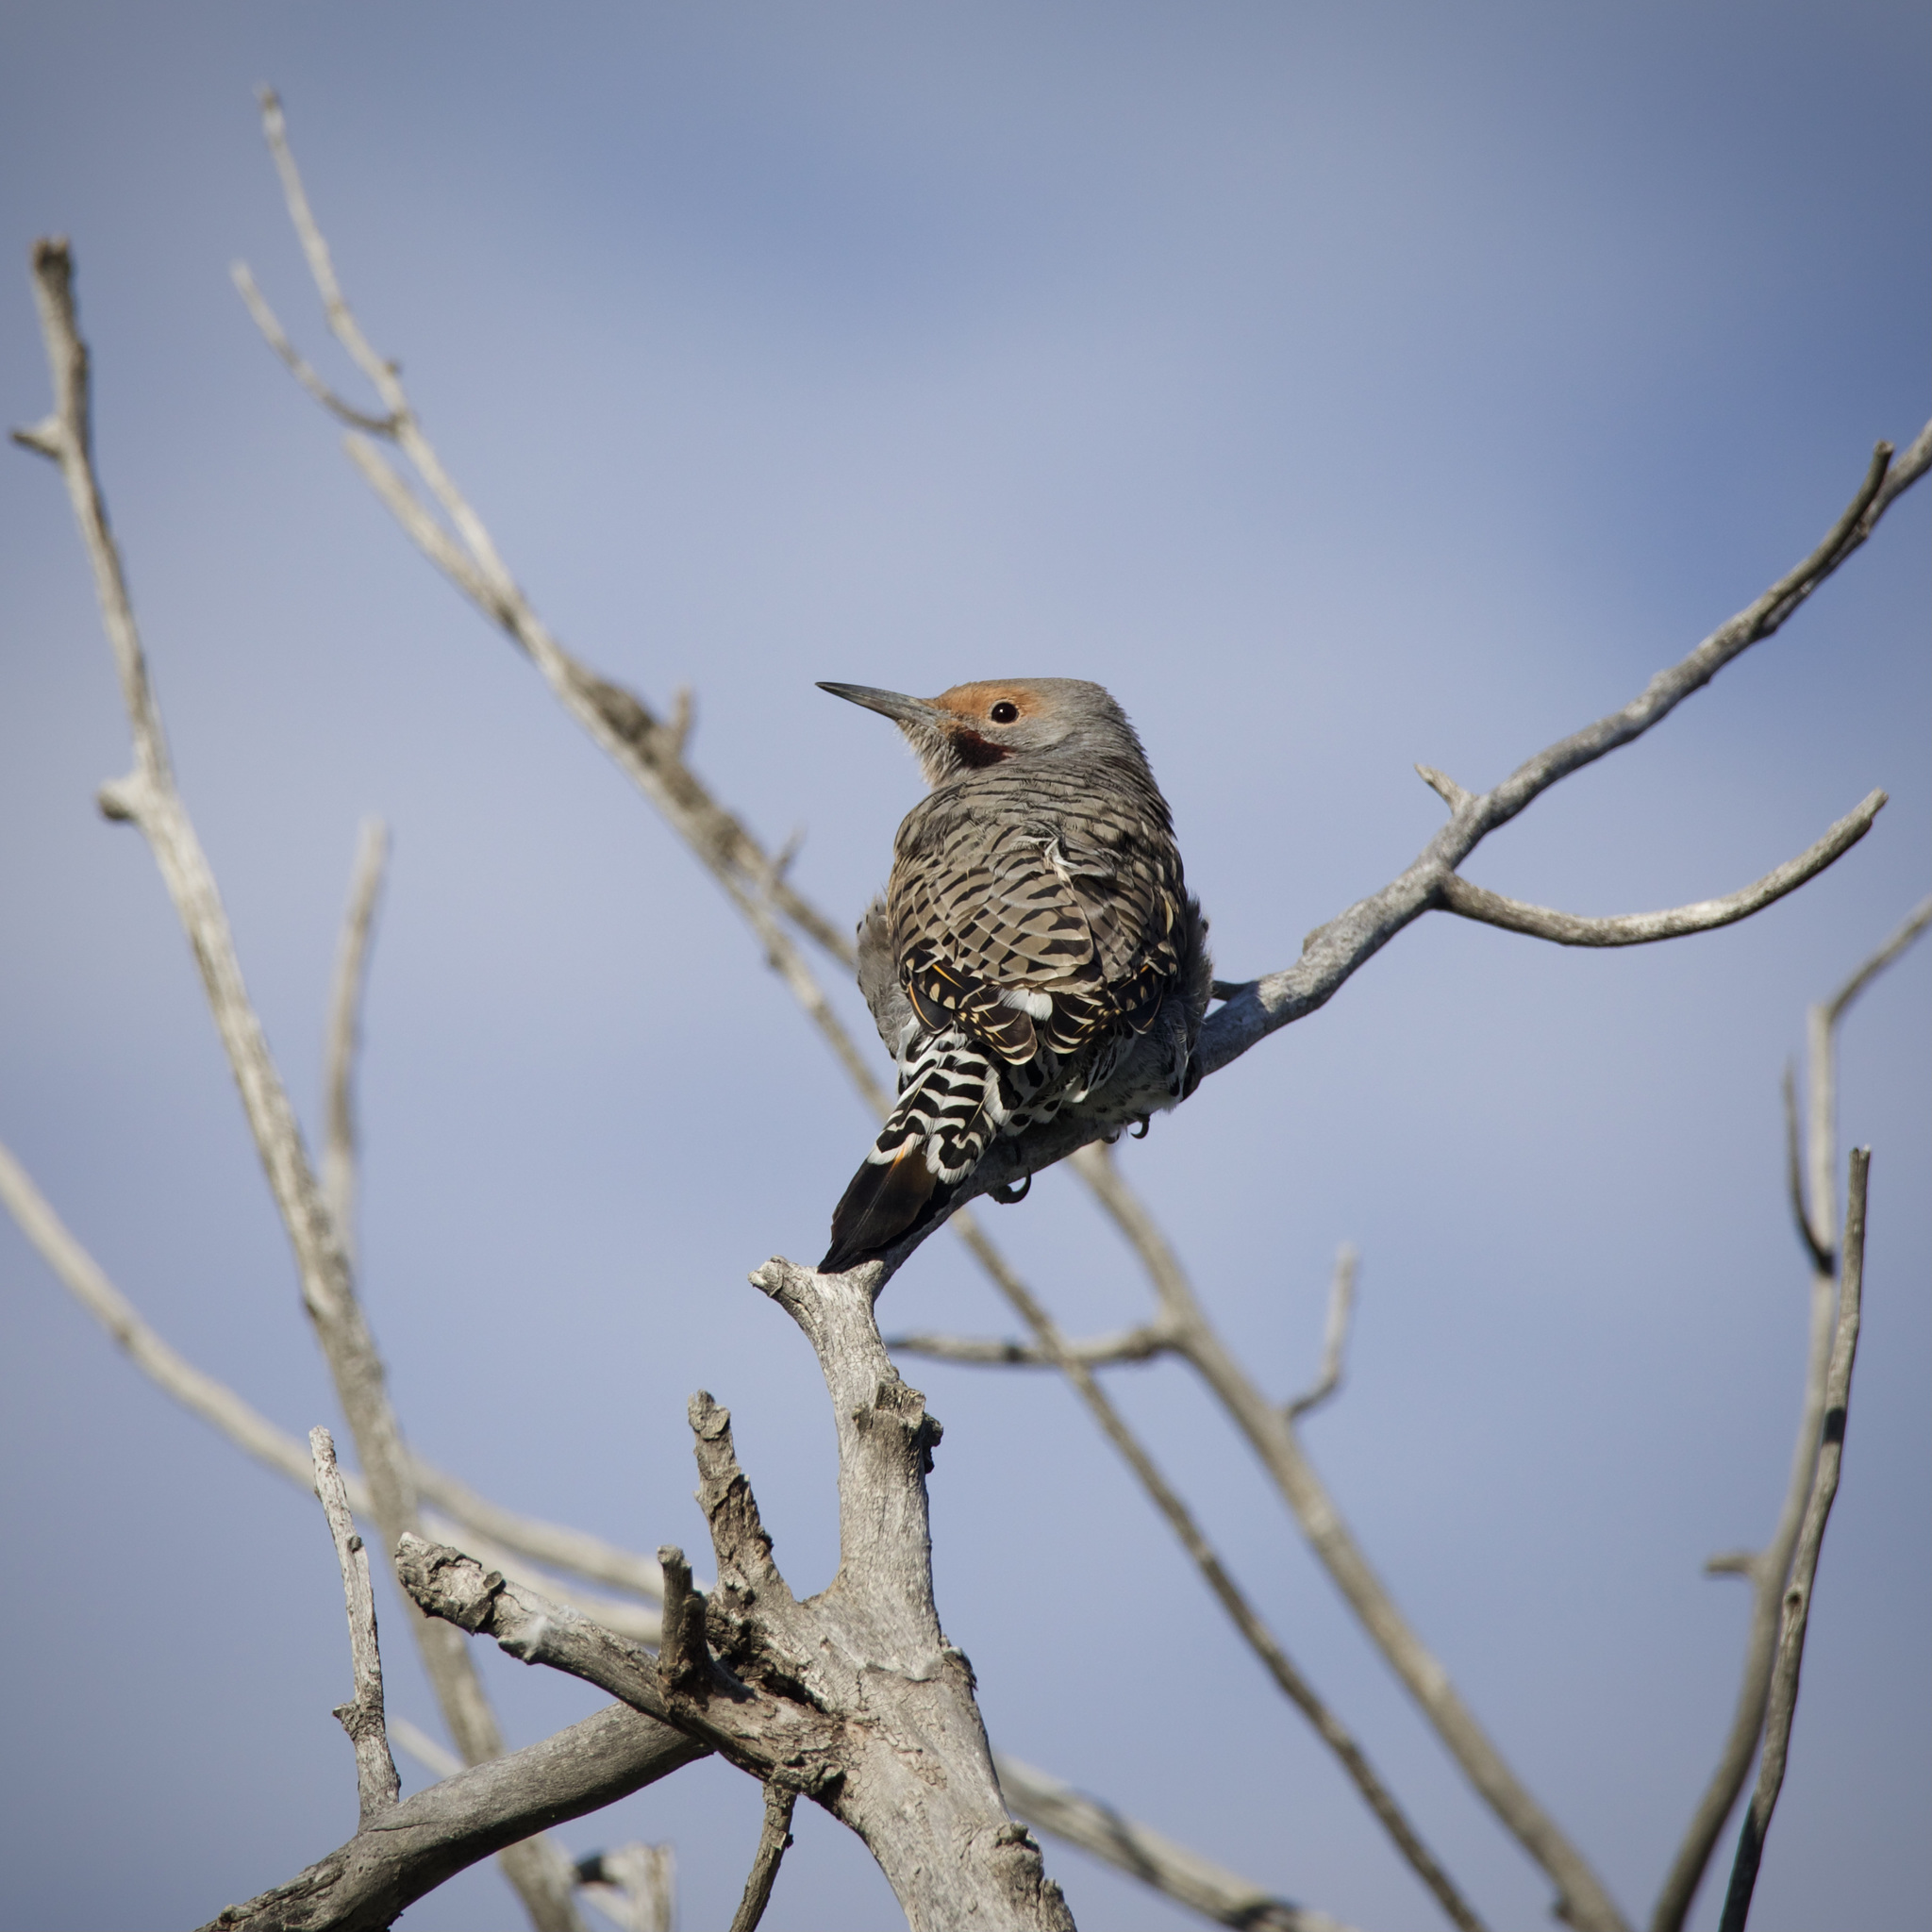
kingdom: Animalia
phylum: Chordata
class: Aves
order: Piciformes
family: Picidae
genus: Colaptes
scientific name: Colaptes auratus
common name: Northern flicker
